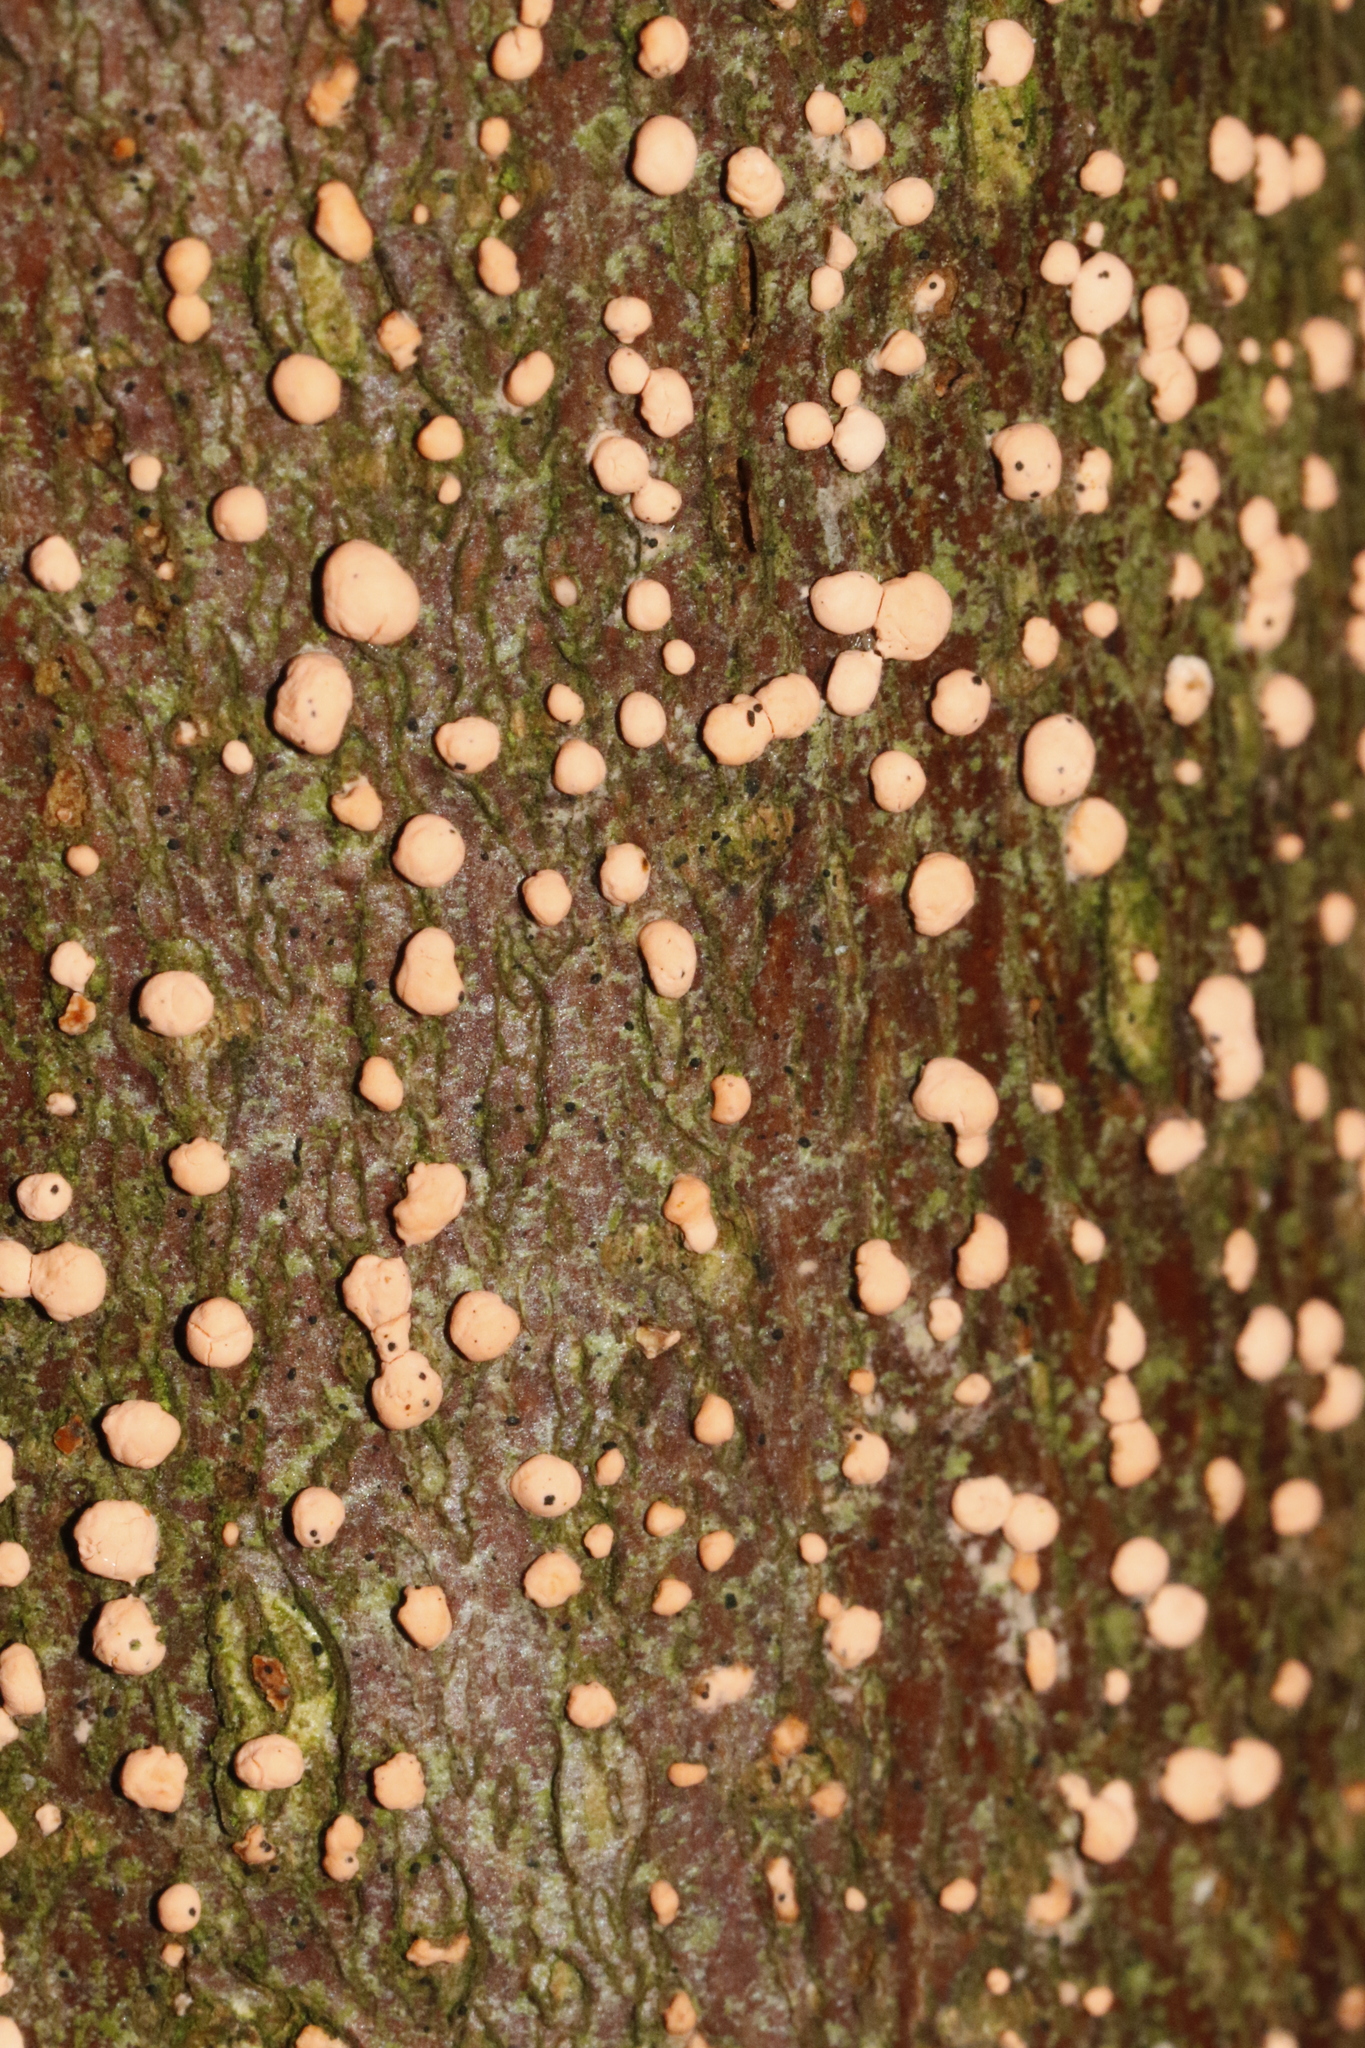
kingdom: Fungi
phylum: Ascomycota
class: Sordariomycetes
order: Hypocreales
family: Nectriaceae
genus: Nectria
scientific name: Nectria cinnabarina
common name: Coral spot
